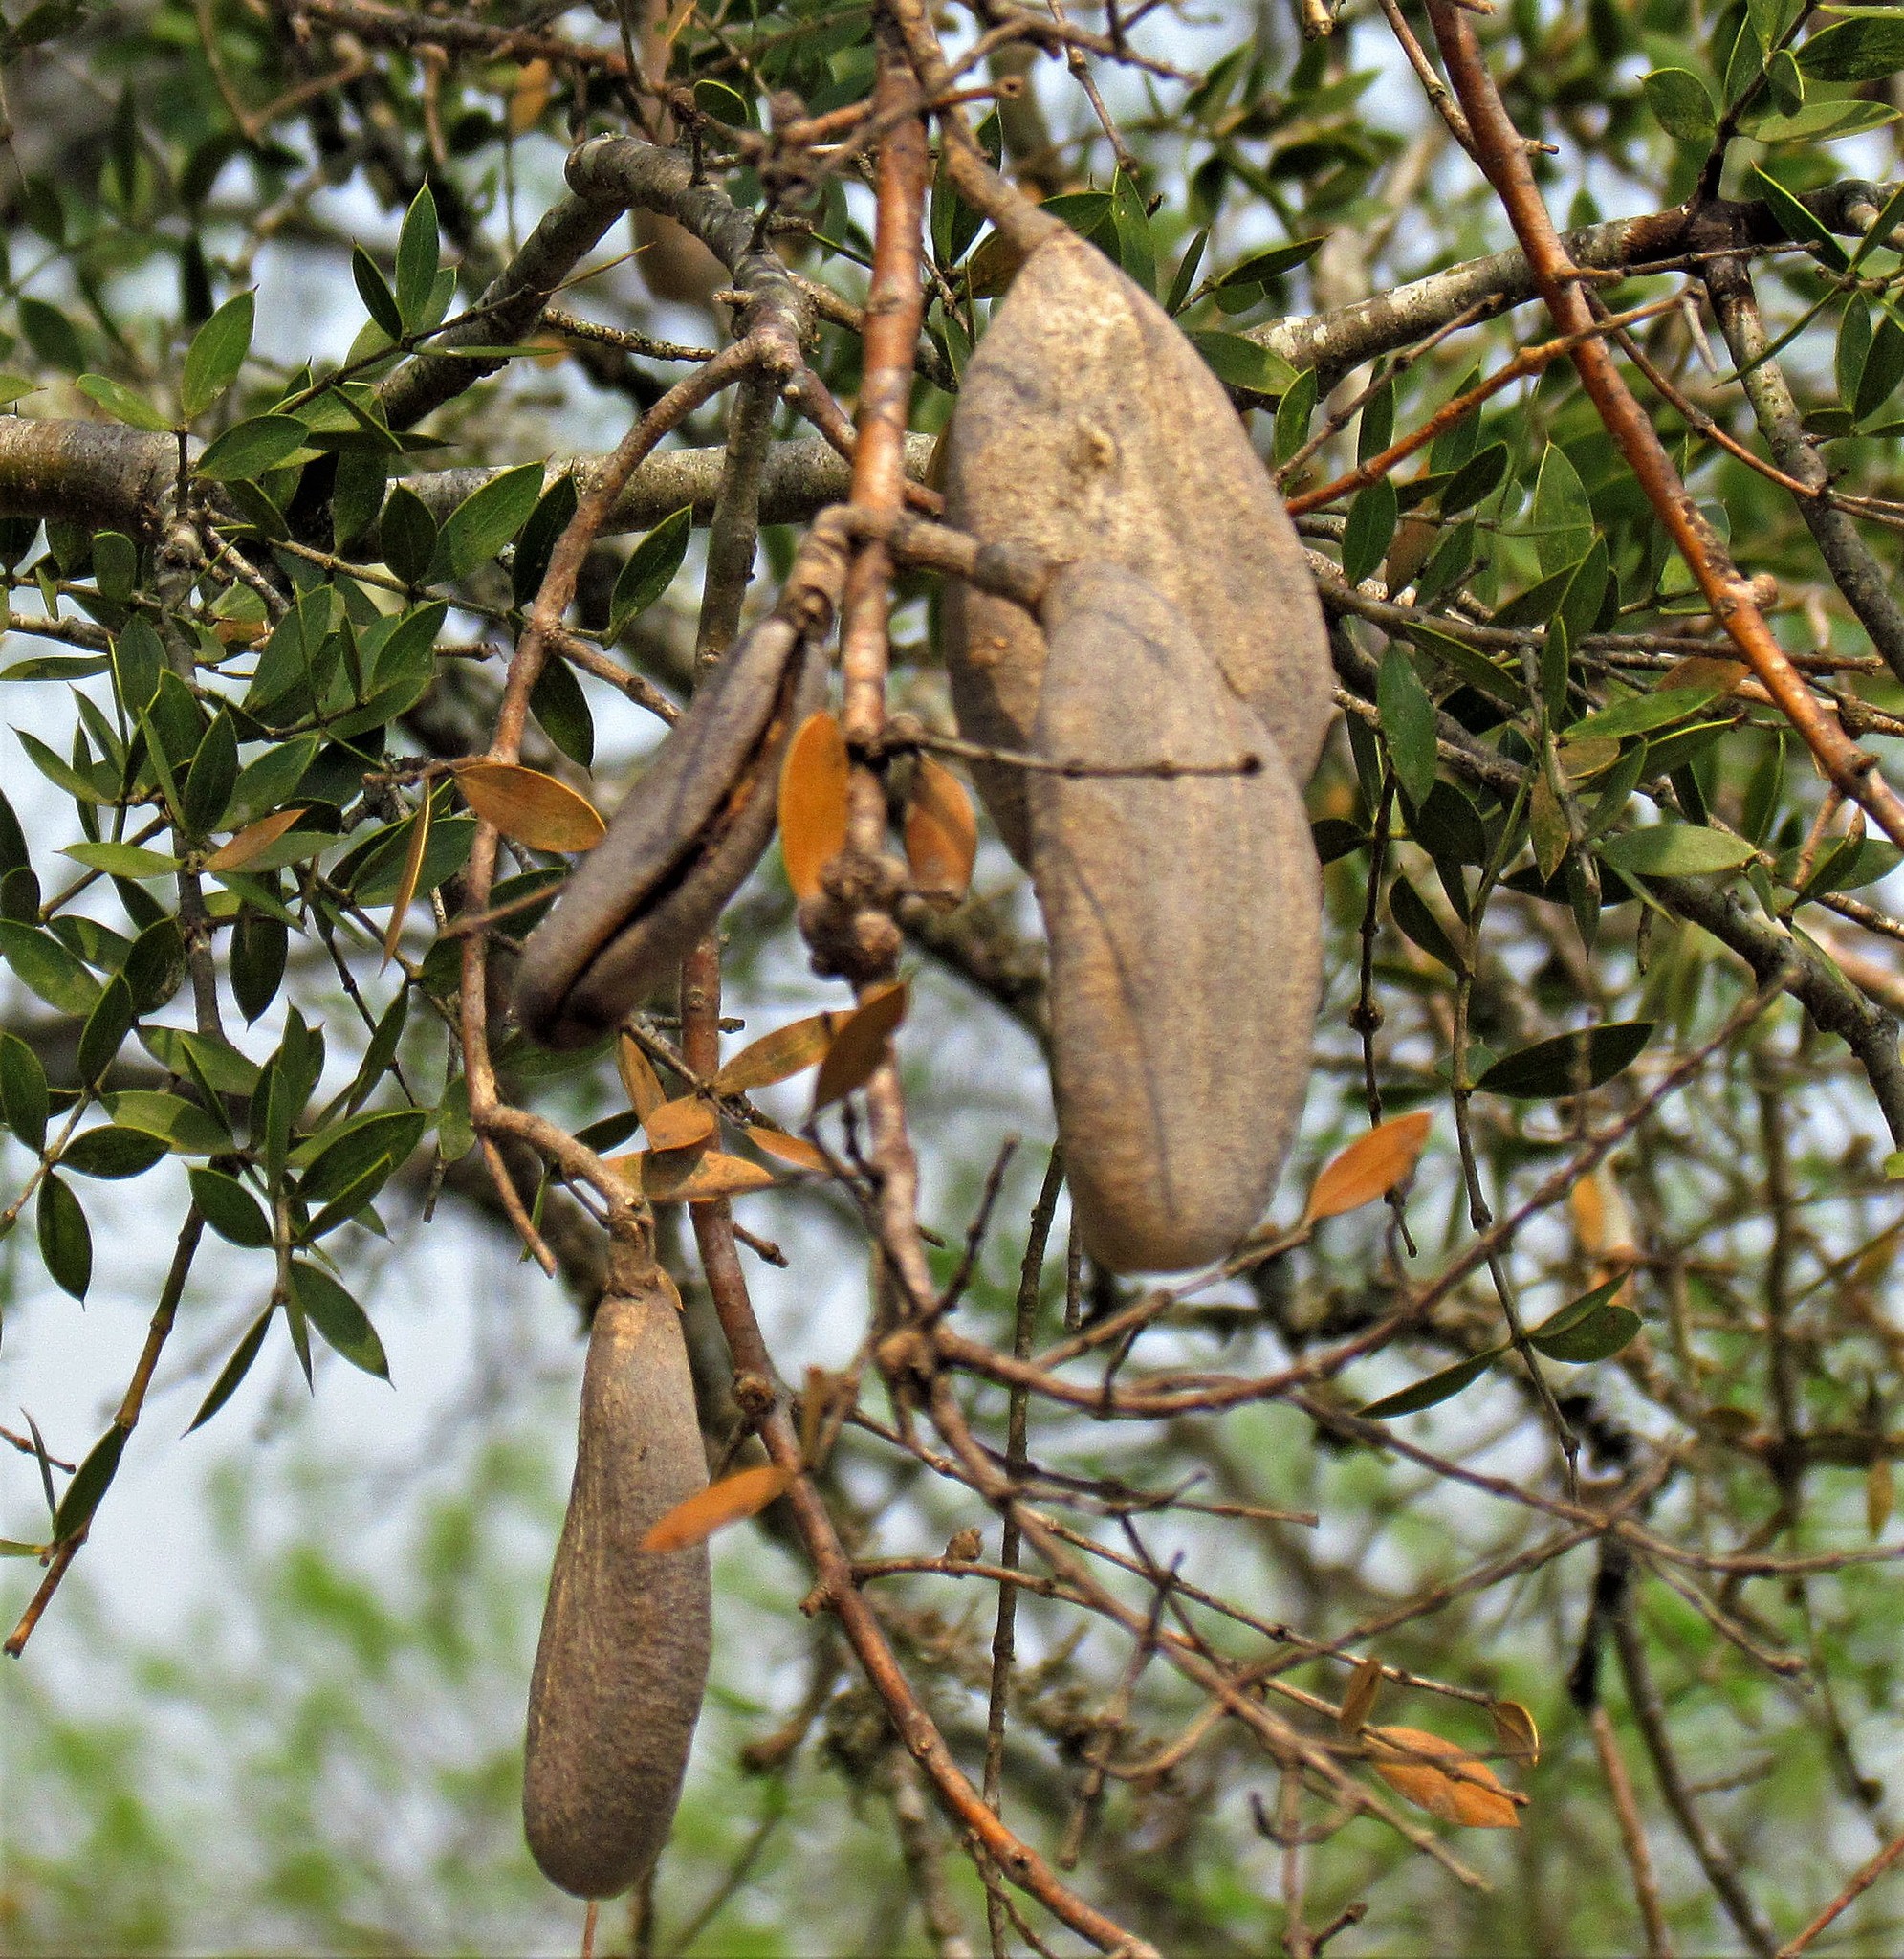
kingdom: Plantae
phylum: Tracheophyta
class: Magnoliopsida
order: Gentianales
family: Apocynaceae
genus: Aspidosperma
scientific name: Aspidosperma quebracho-blanco
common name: White quebracho
